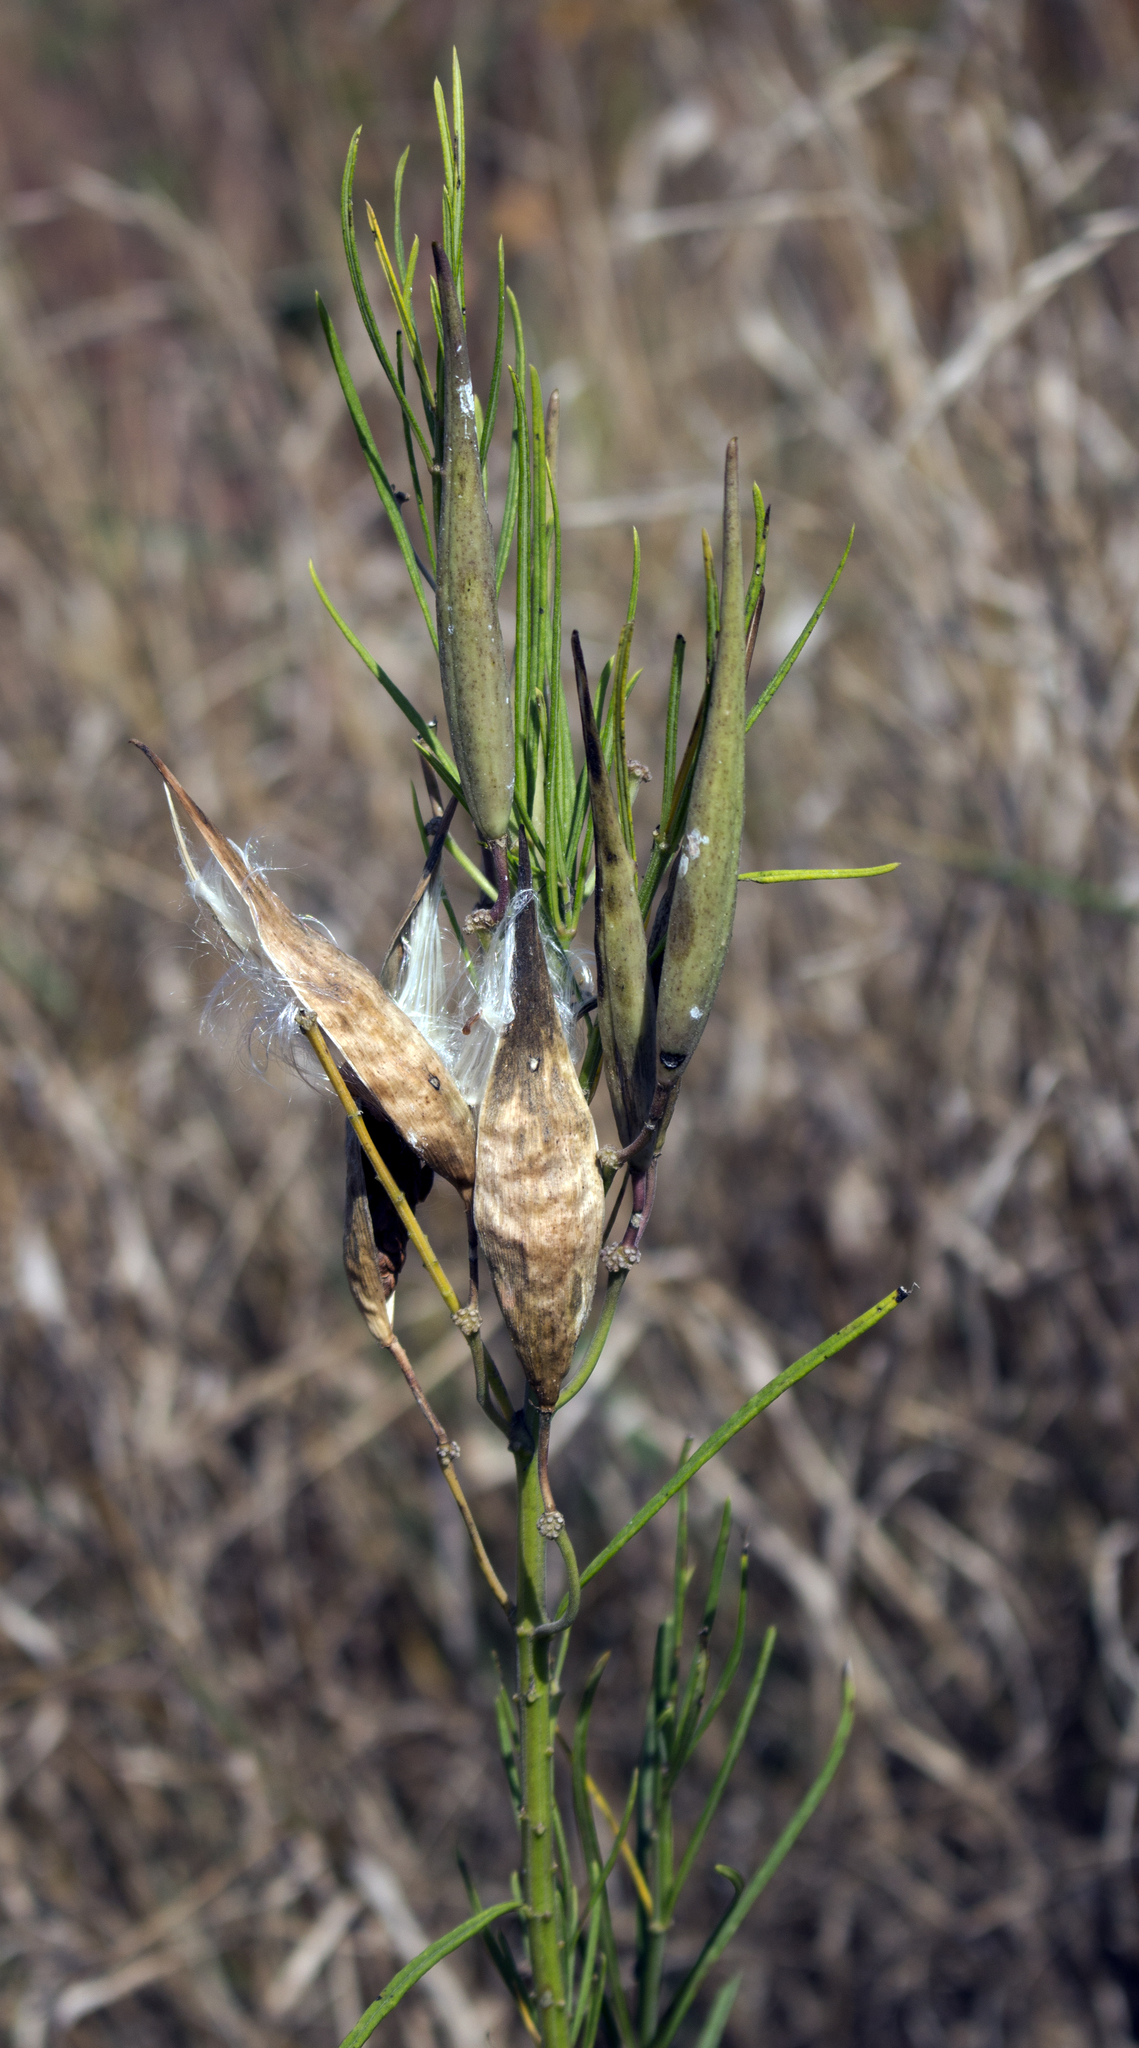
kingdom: Plantae
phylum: Tracheophyta
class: Magnoliopsida
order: Gentianales
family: Apocynaceae
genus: Asclepias
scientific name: Asclepias verticillata
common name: Eastern whorled milkweed
